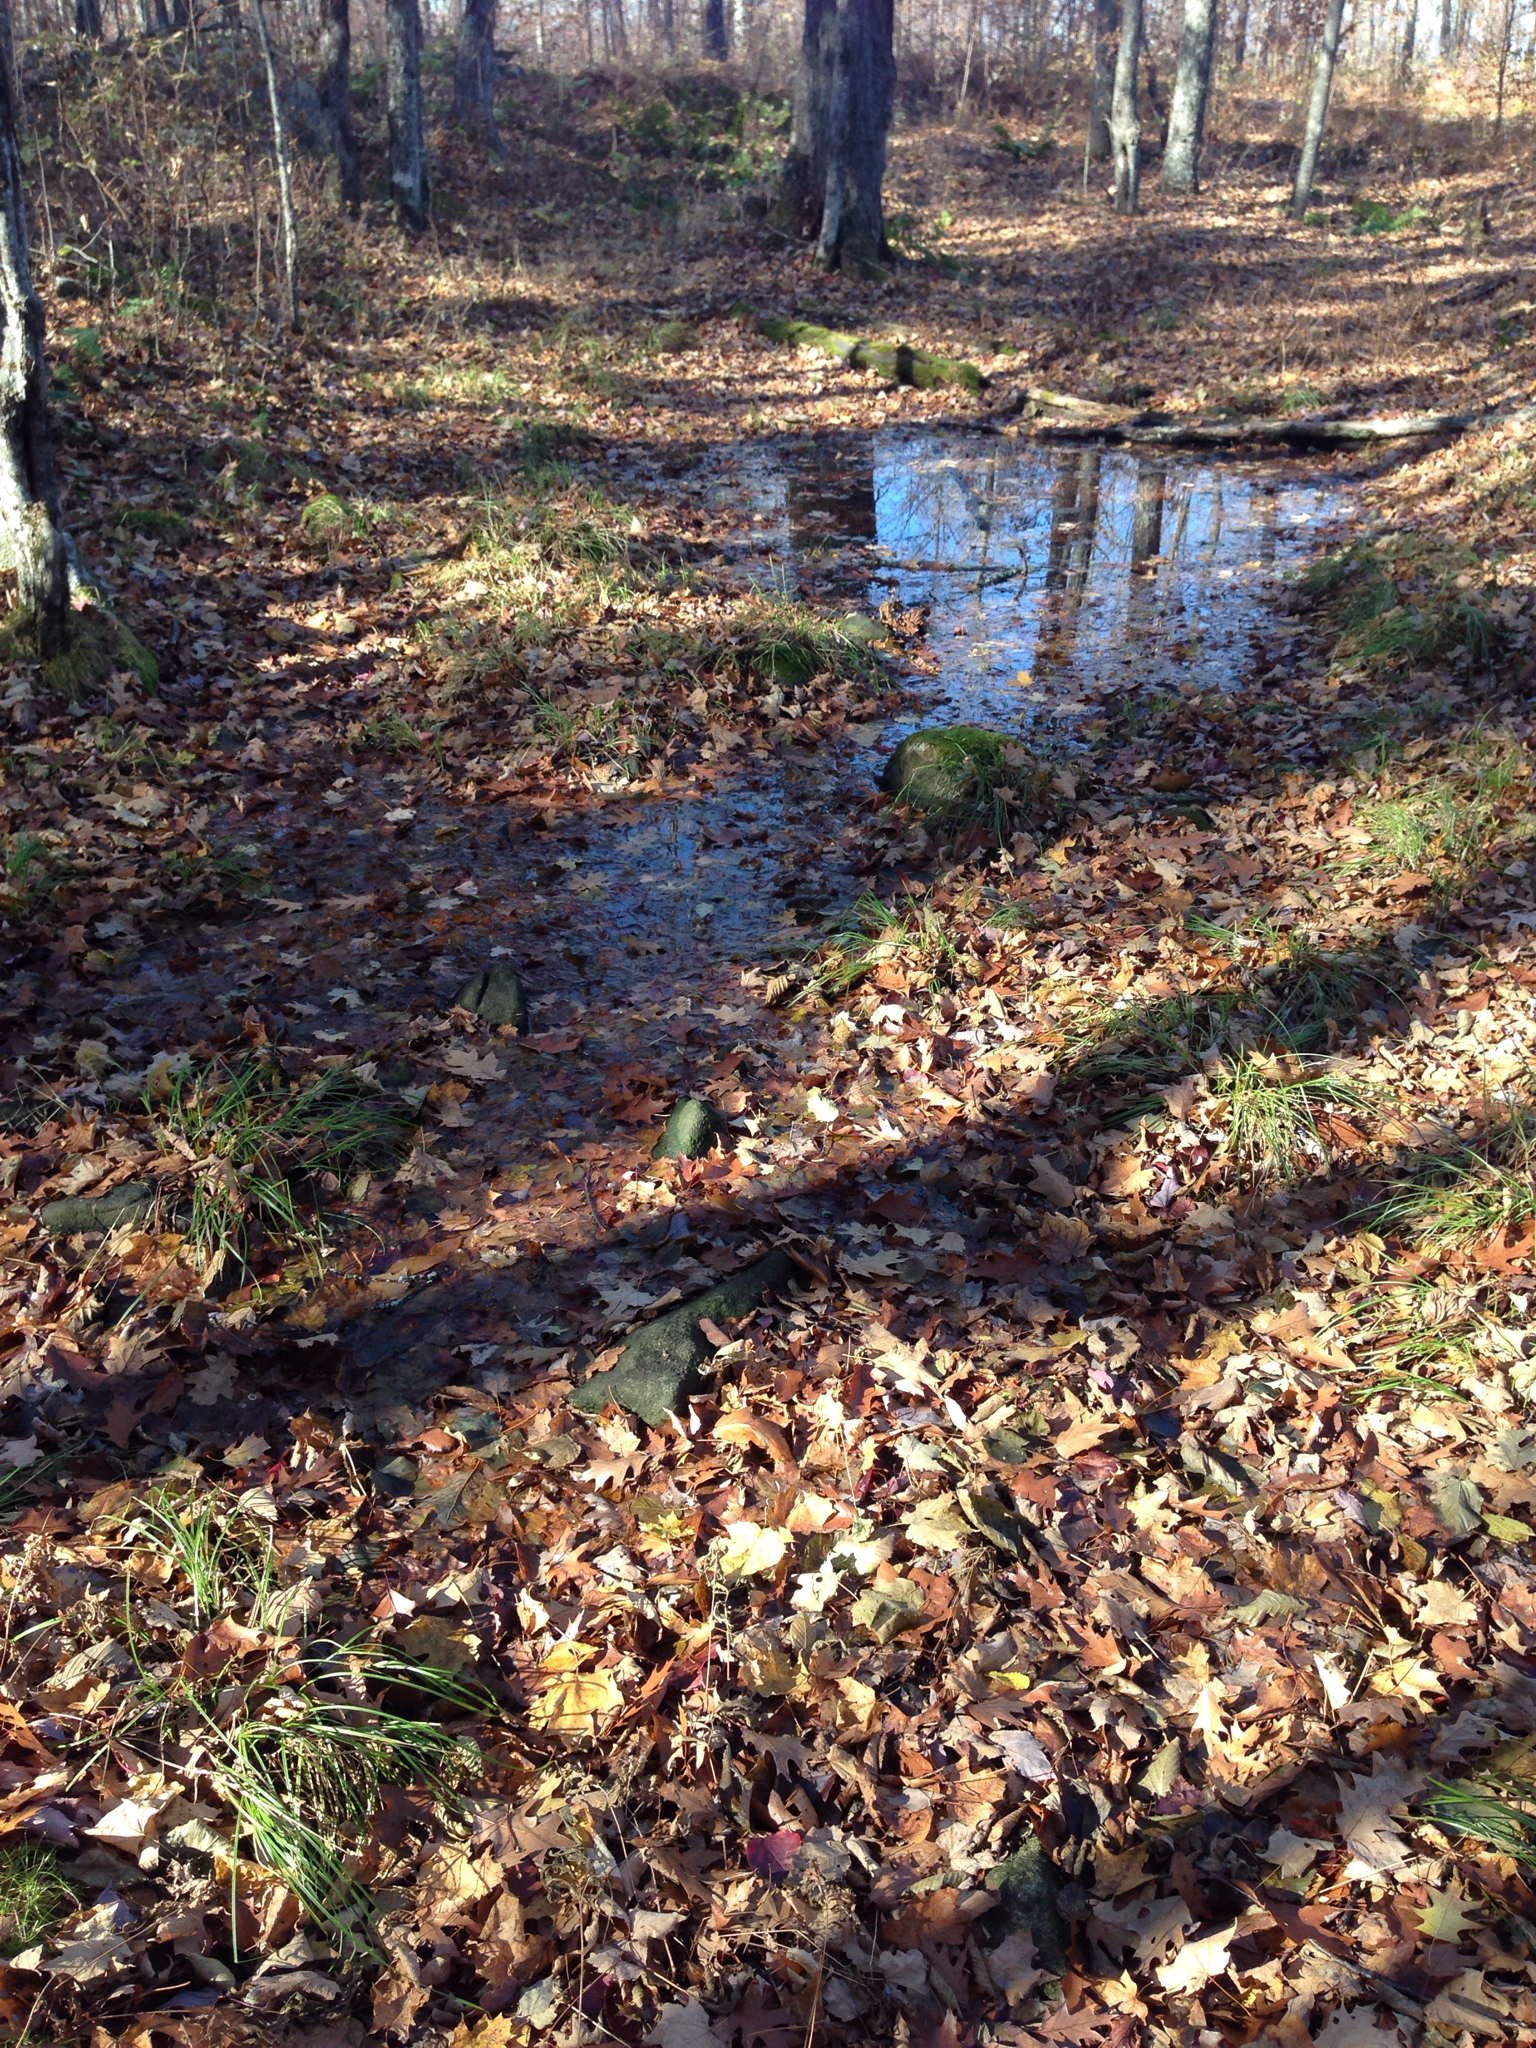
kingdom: Plantae
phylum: Tracheophyta
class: Polypodiopsida
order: Polypodiales
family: Onocleaceae
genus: Onoclea
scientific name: Onoclea sensibilis
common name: Sensitive fern
